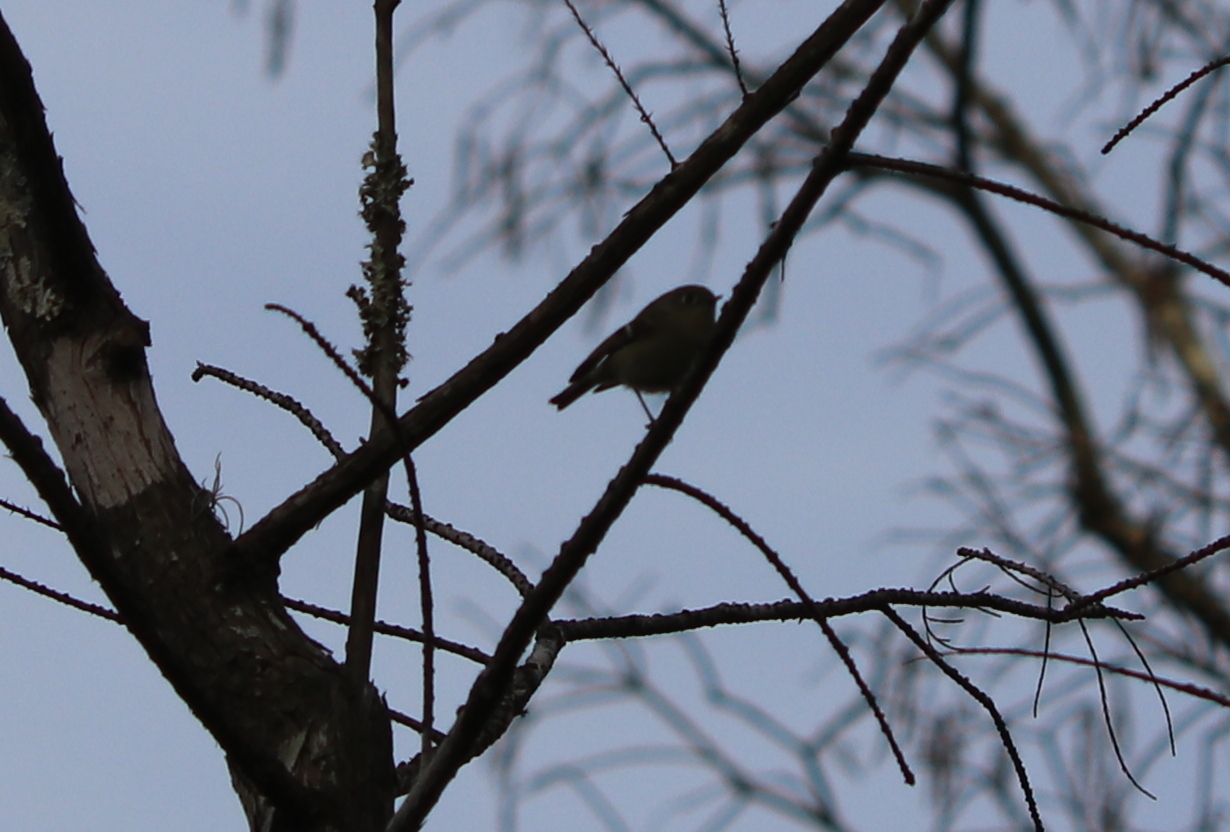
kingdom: Animalia
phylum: Chordata
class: Aves
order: Passeriformes
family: Regulidae
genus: Regulus
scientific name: Regulus calendula
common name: Ruby-crowned kinglet
